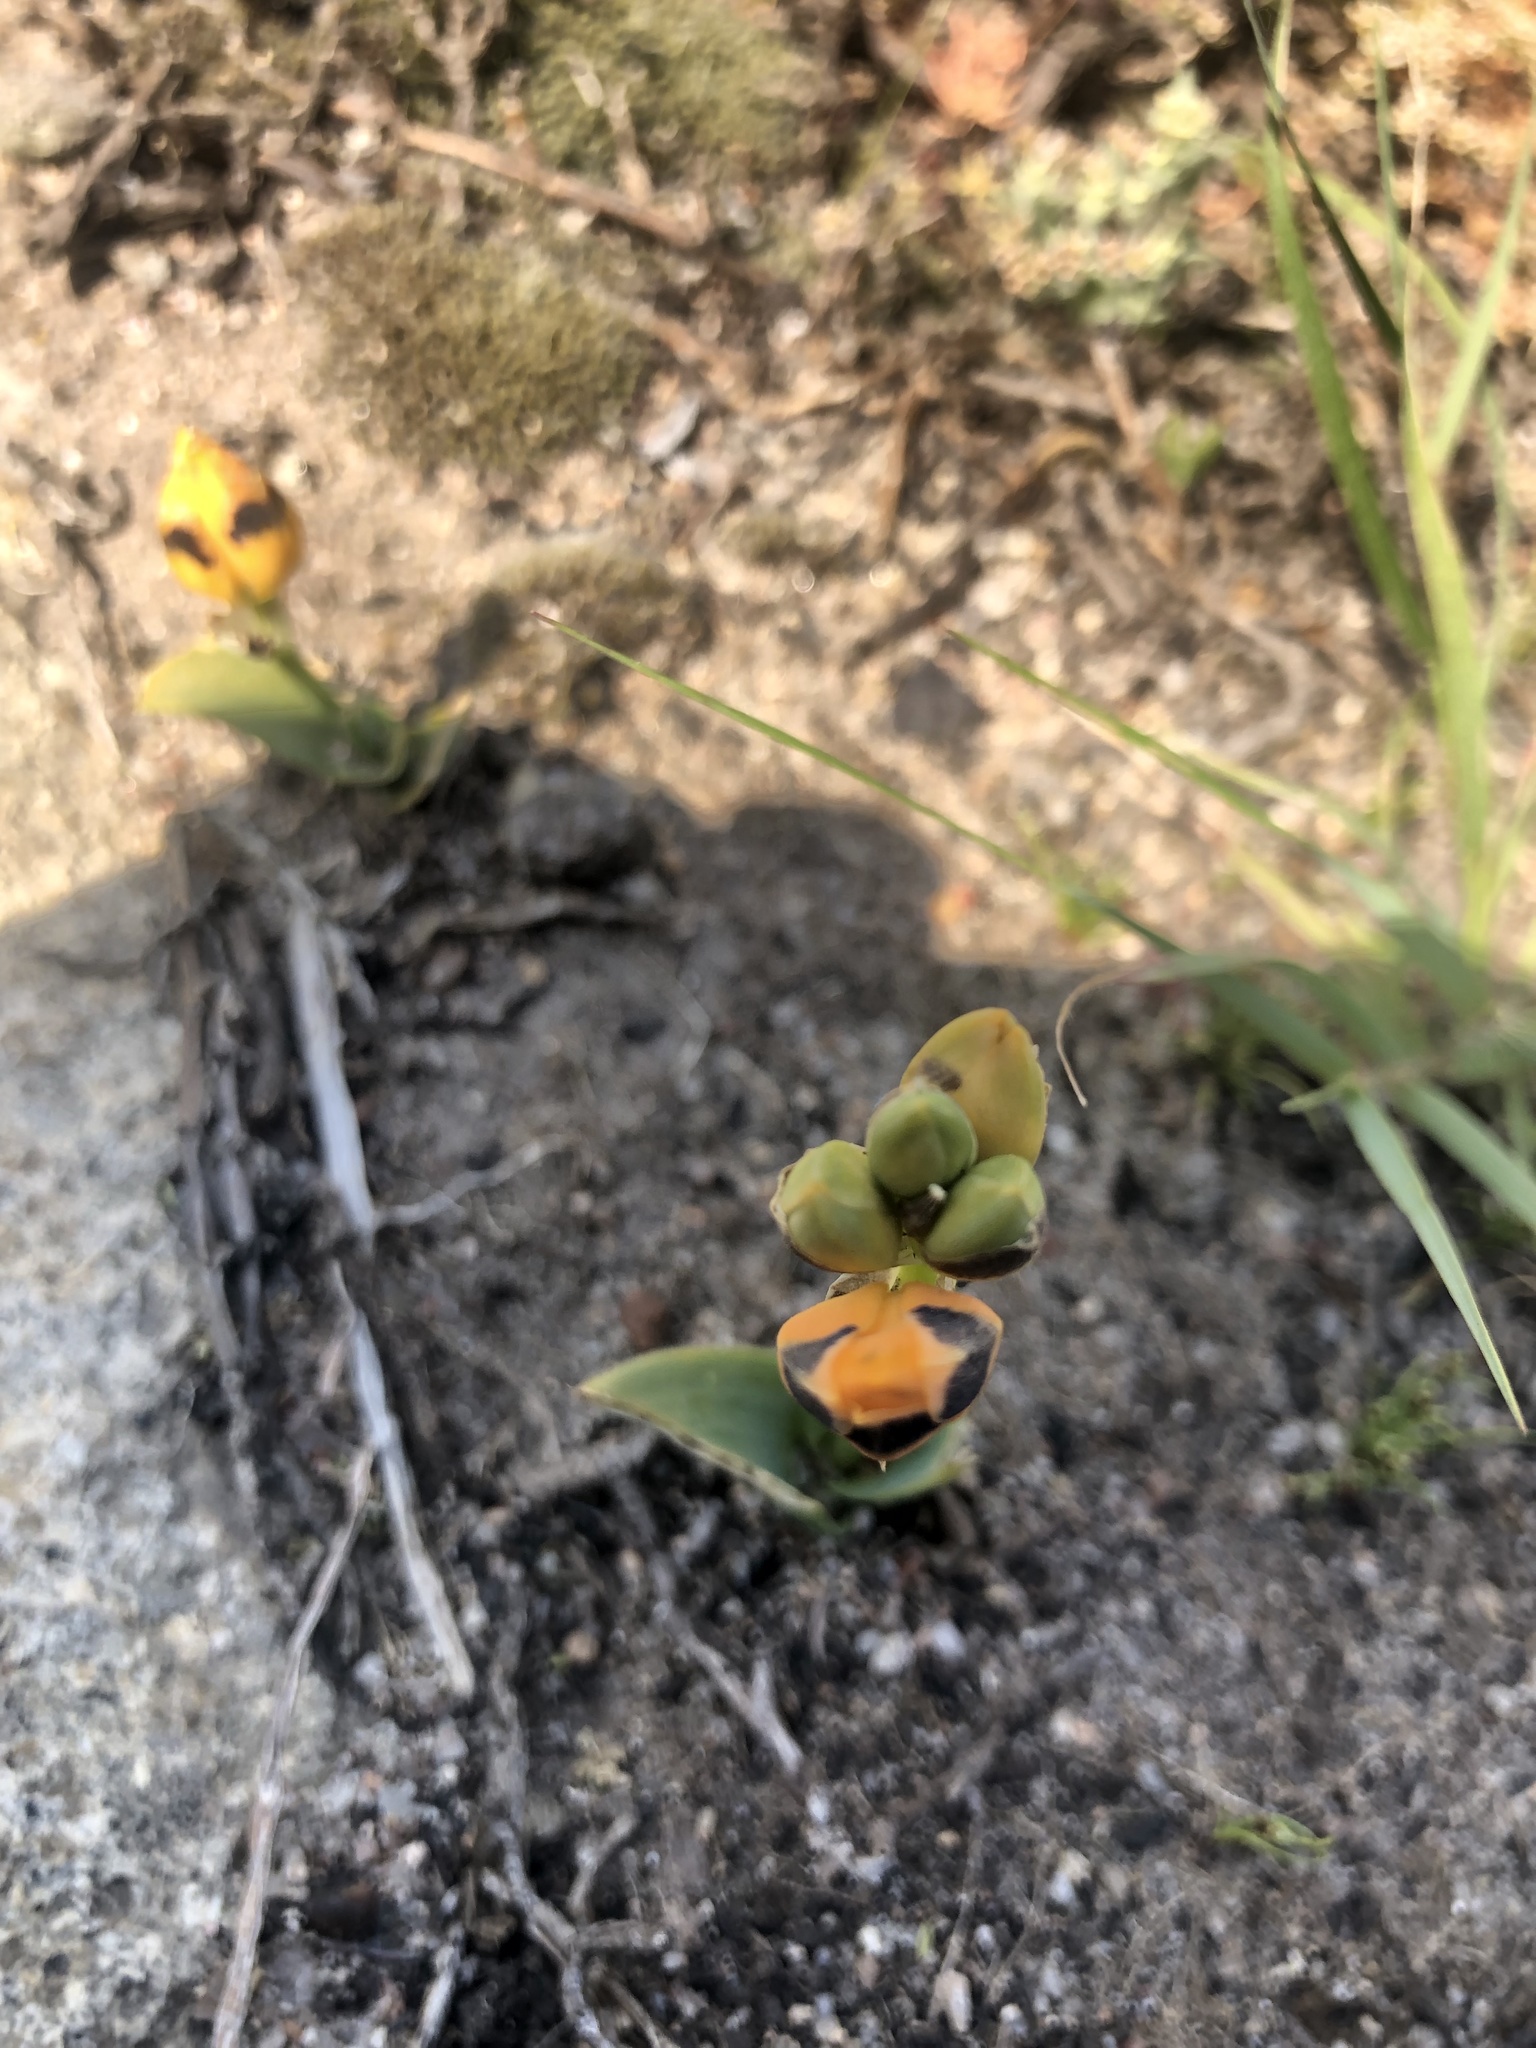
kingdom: Plantae
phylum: Tracheophyta
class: Liliopsida
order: Asparagales
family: Asparagaceae
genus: Ornithogalum
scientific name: Ornithogalum maculatum
